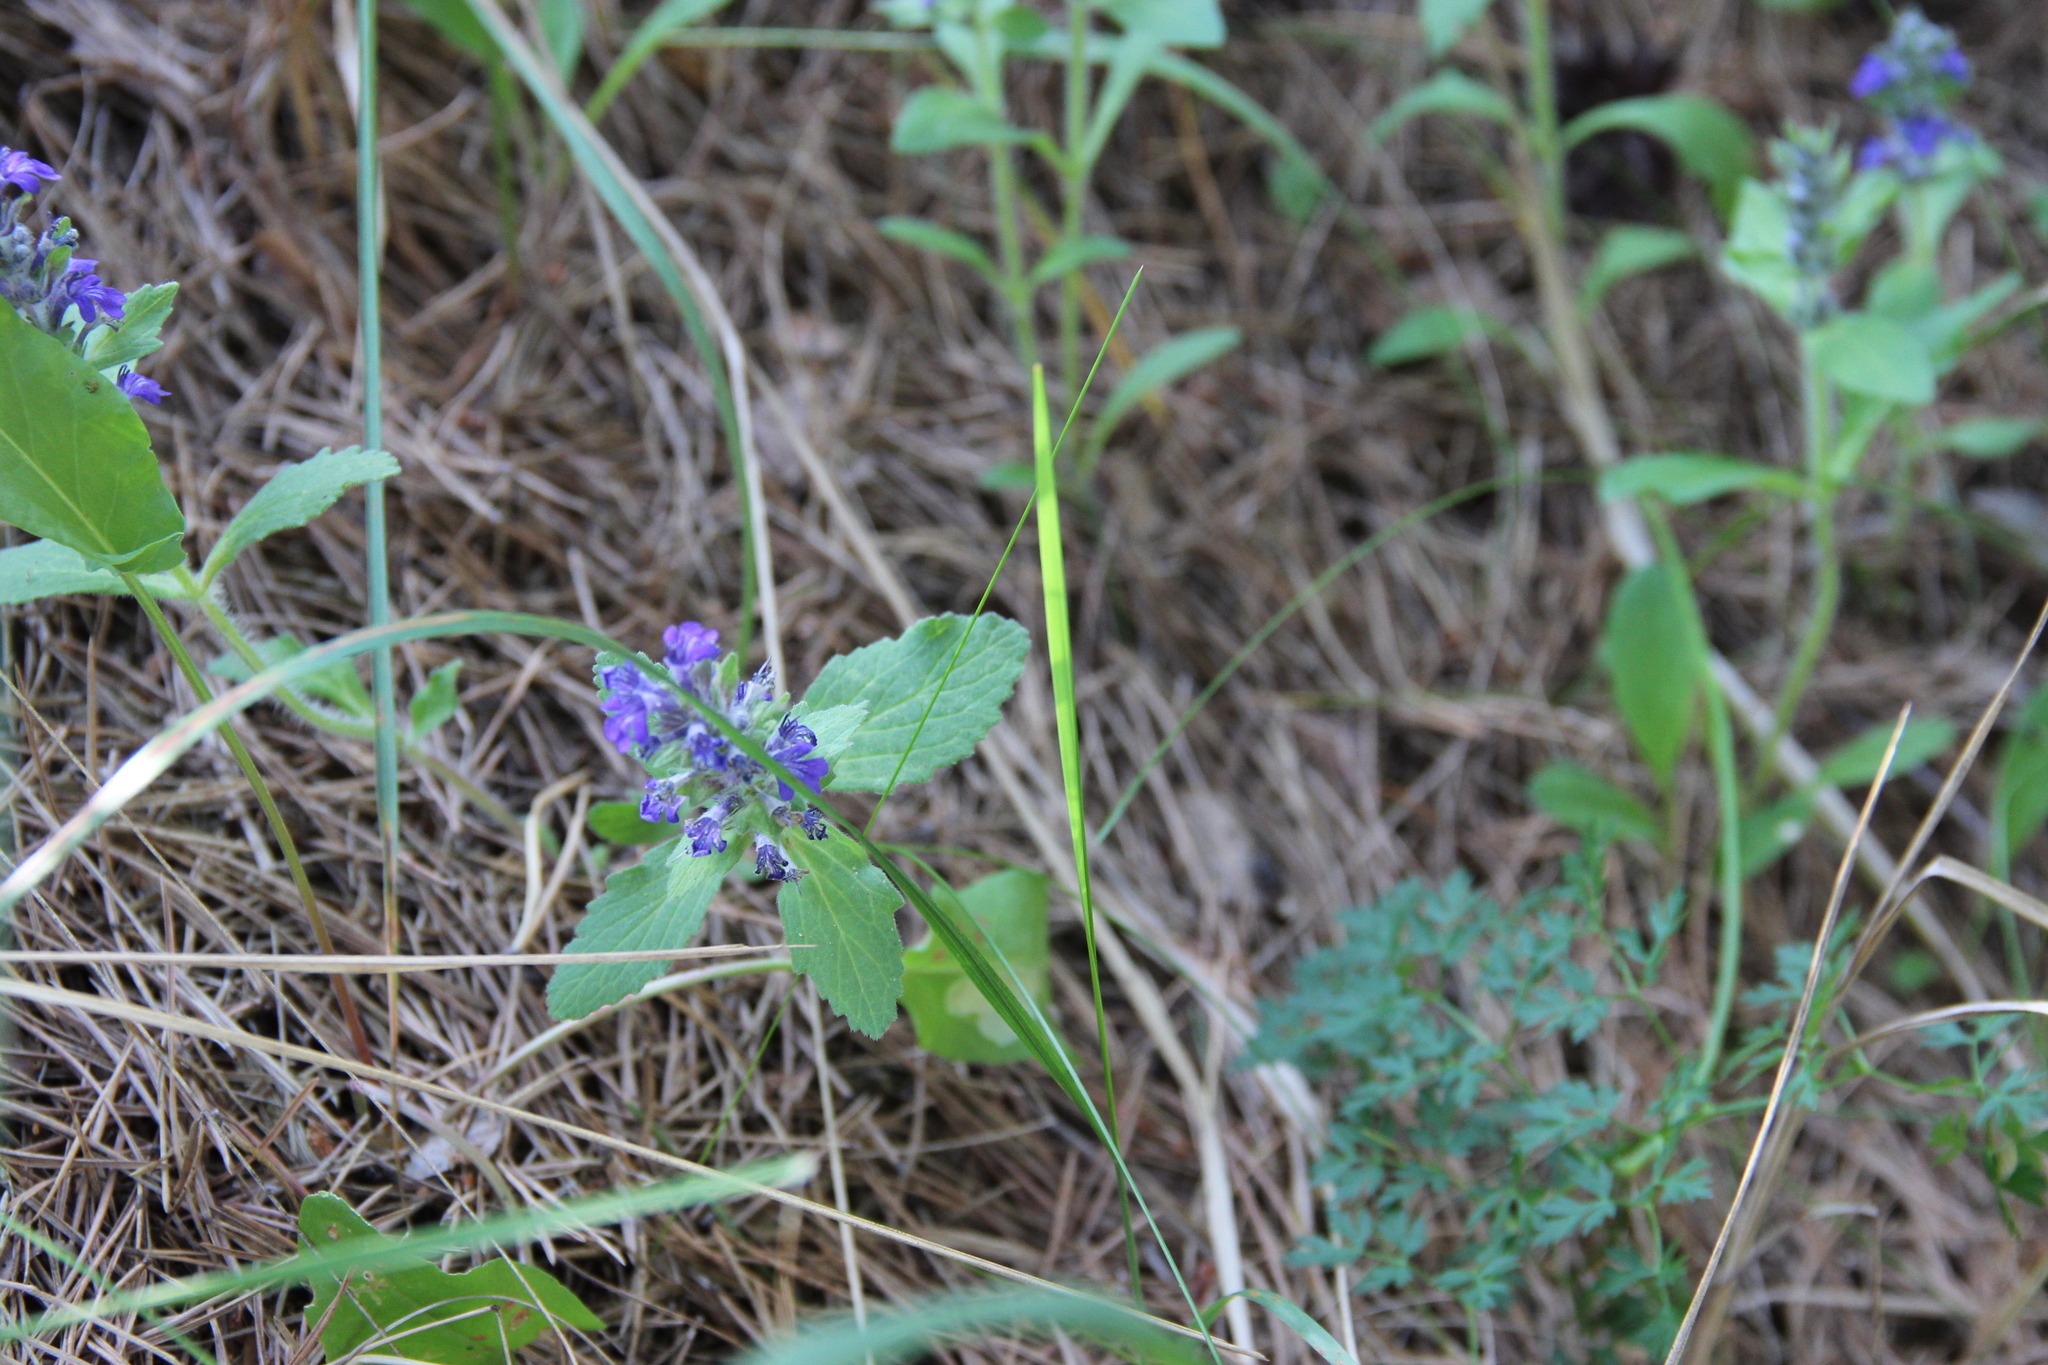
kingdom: Plantae
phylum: Tracheophyta
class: Magnoliopsida
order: Lamiales
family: Lamiaceae
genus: Ajuga
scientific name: Ajuga genevensis
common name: Blue bugle
